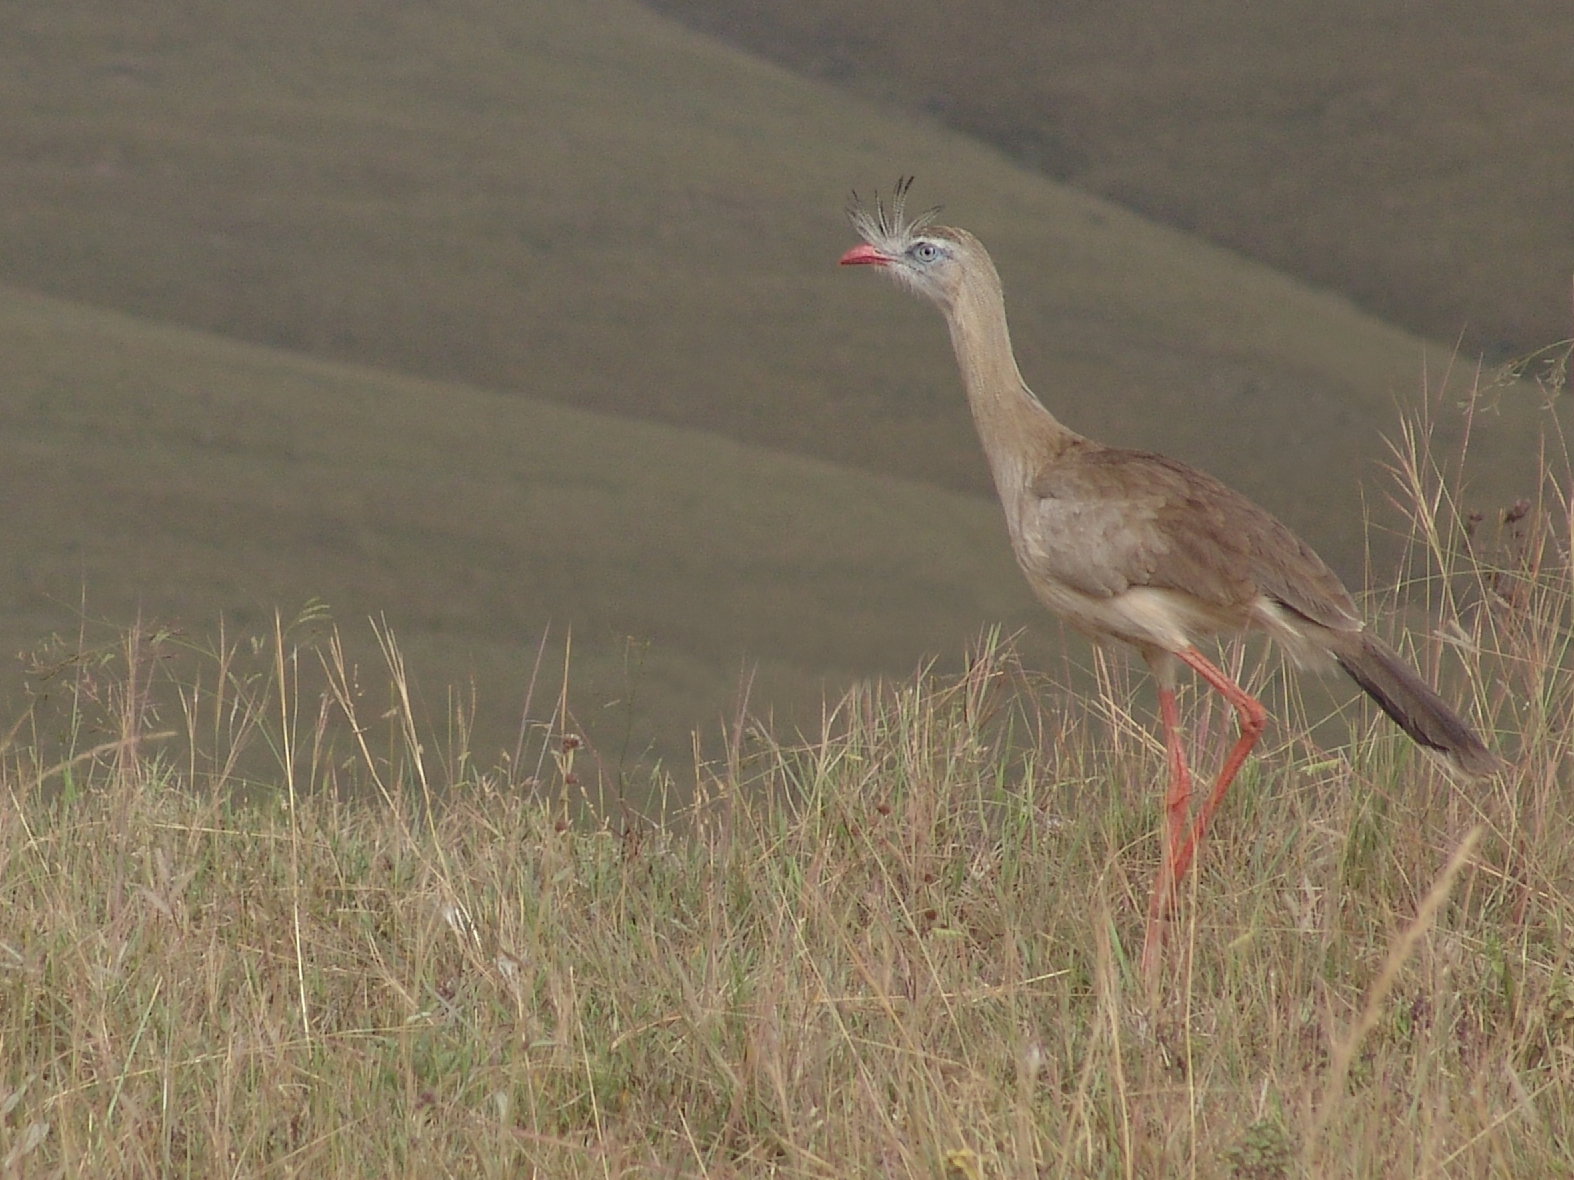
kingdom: Animalia
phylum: Chordata
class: Aves
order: Cariamiformes
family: Cariamidae
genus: Cariama
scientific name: Cariama cristata
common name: Red-legged seriema
